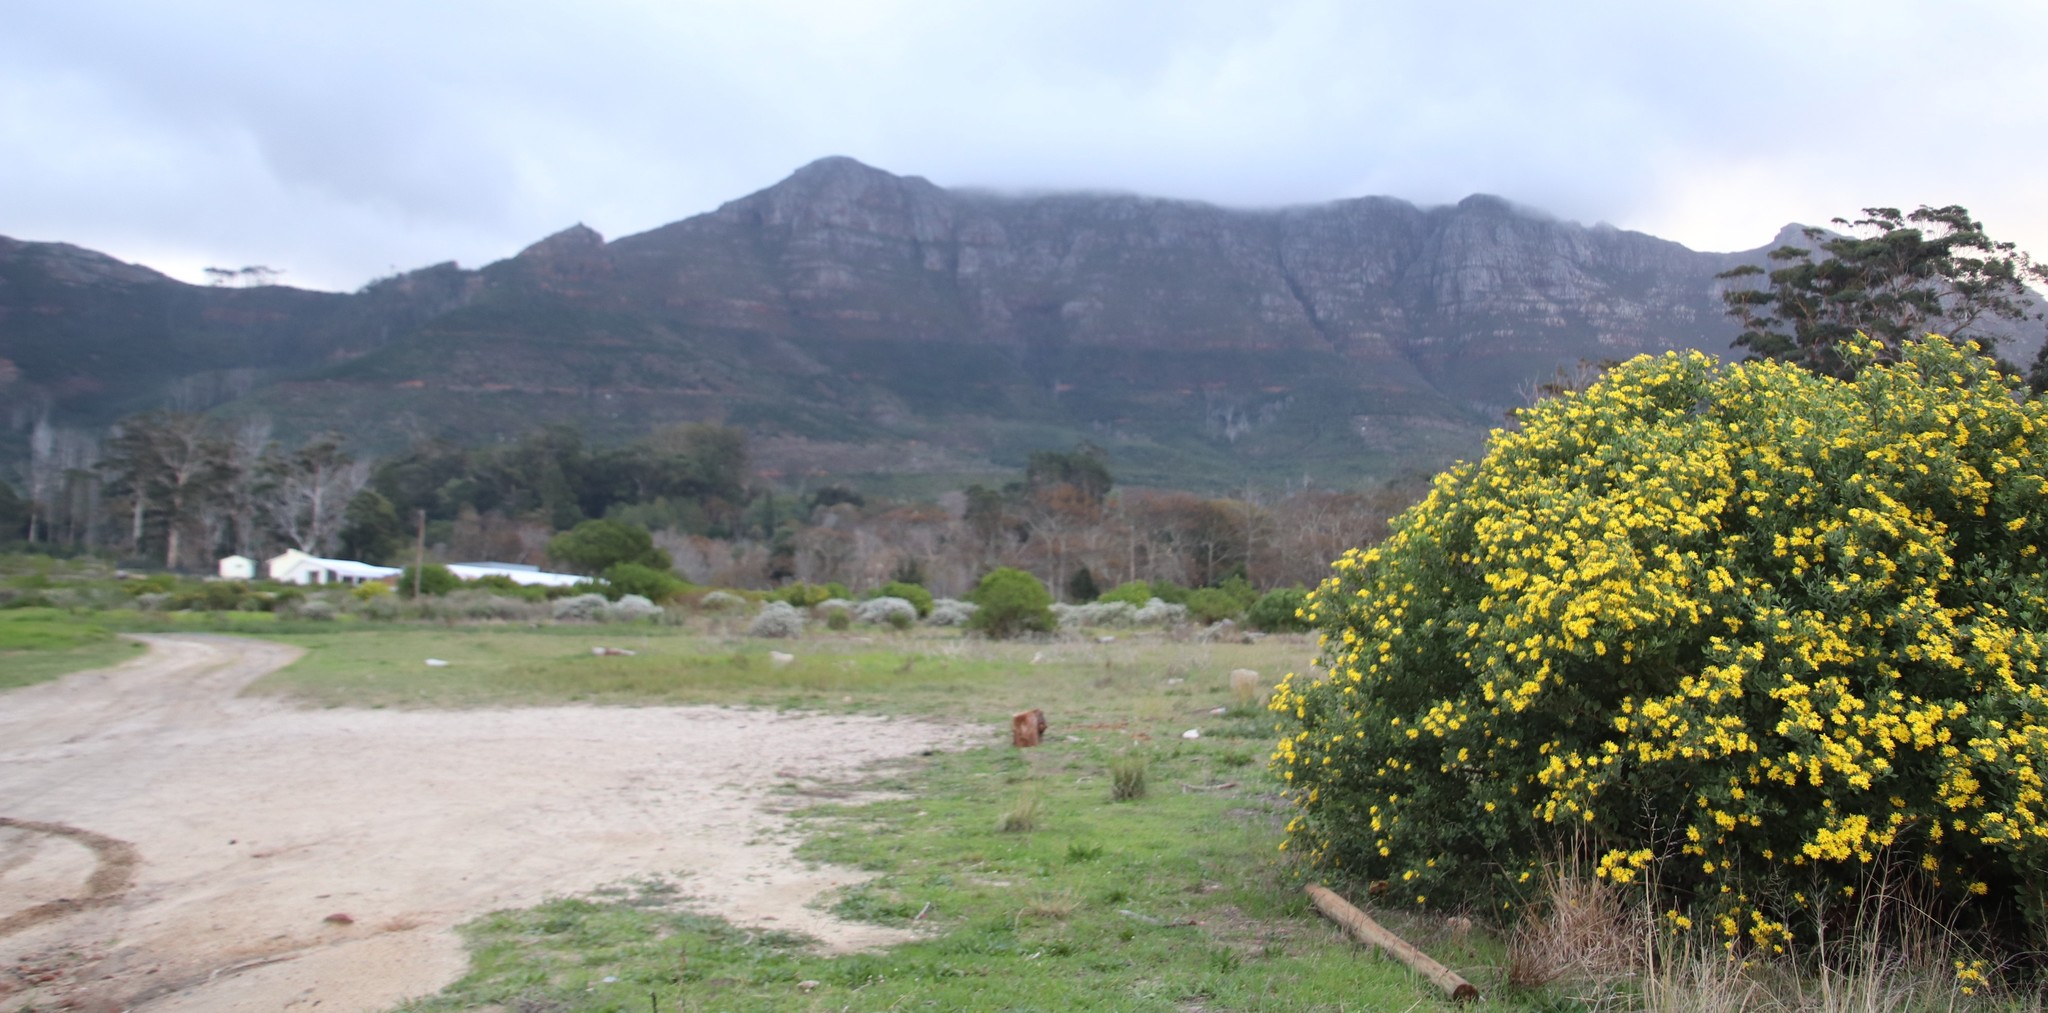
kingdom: Plantae
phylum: Tracheophyta
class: Magnoliopsida
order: Asterales
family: Asteraceae
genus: Osteospermum
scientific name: Osteospermum moniliferum
